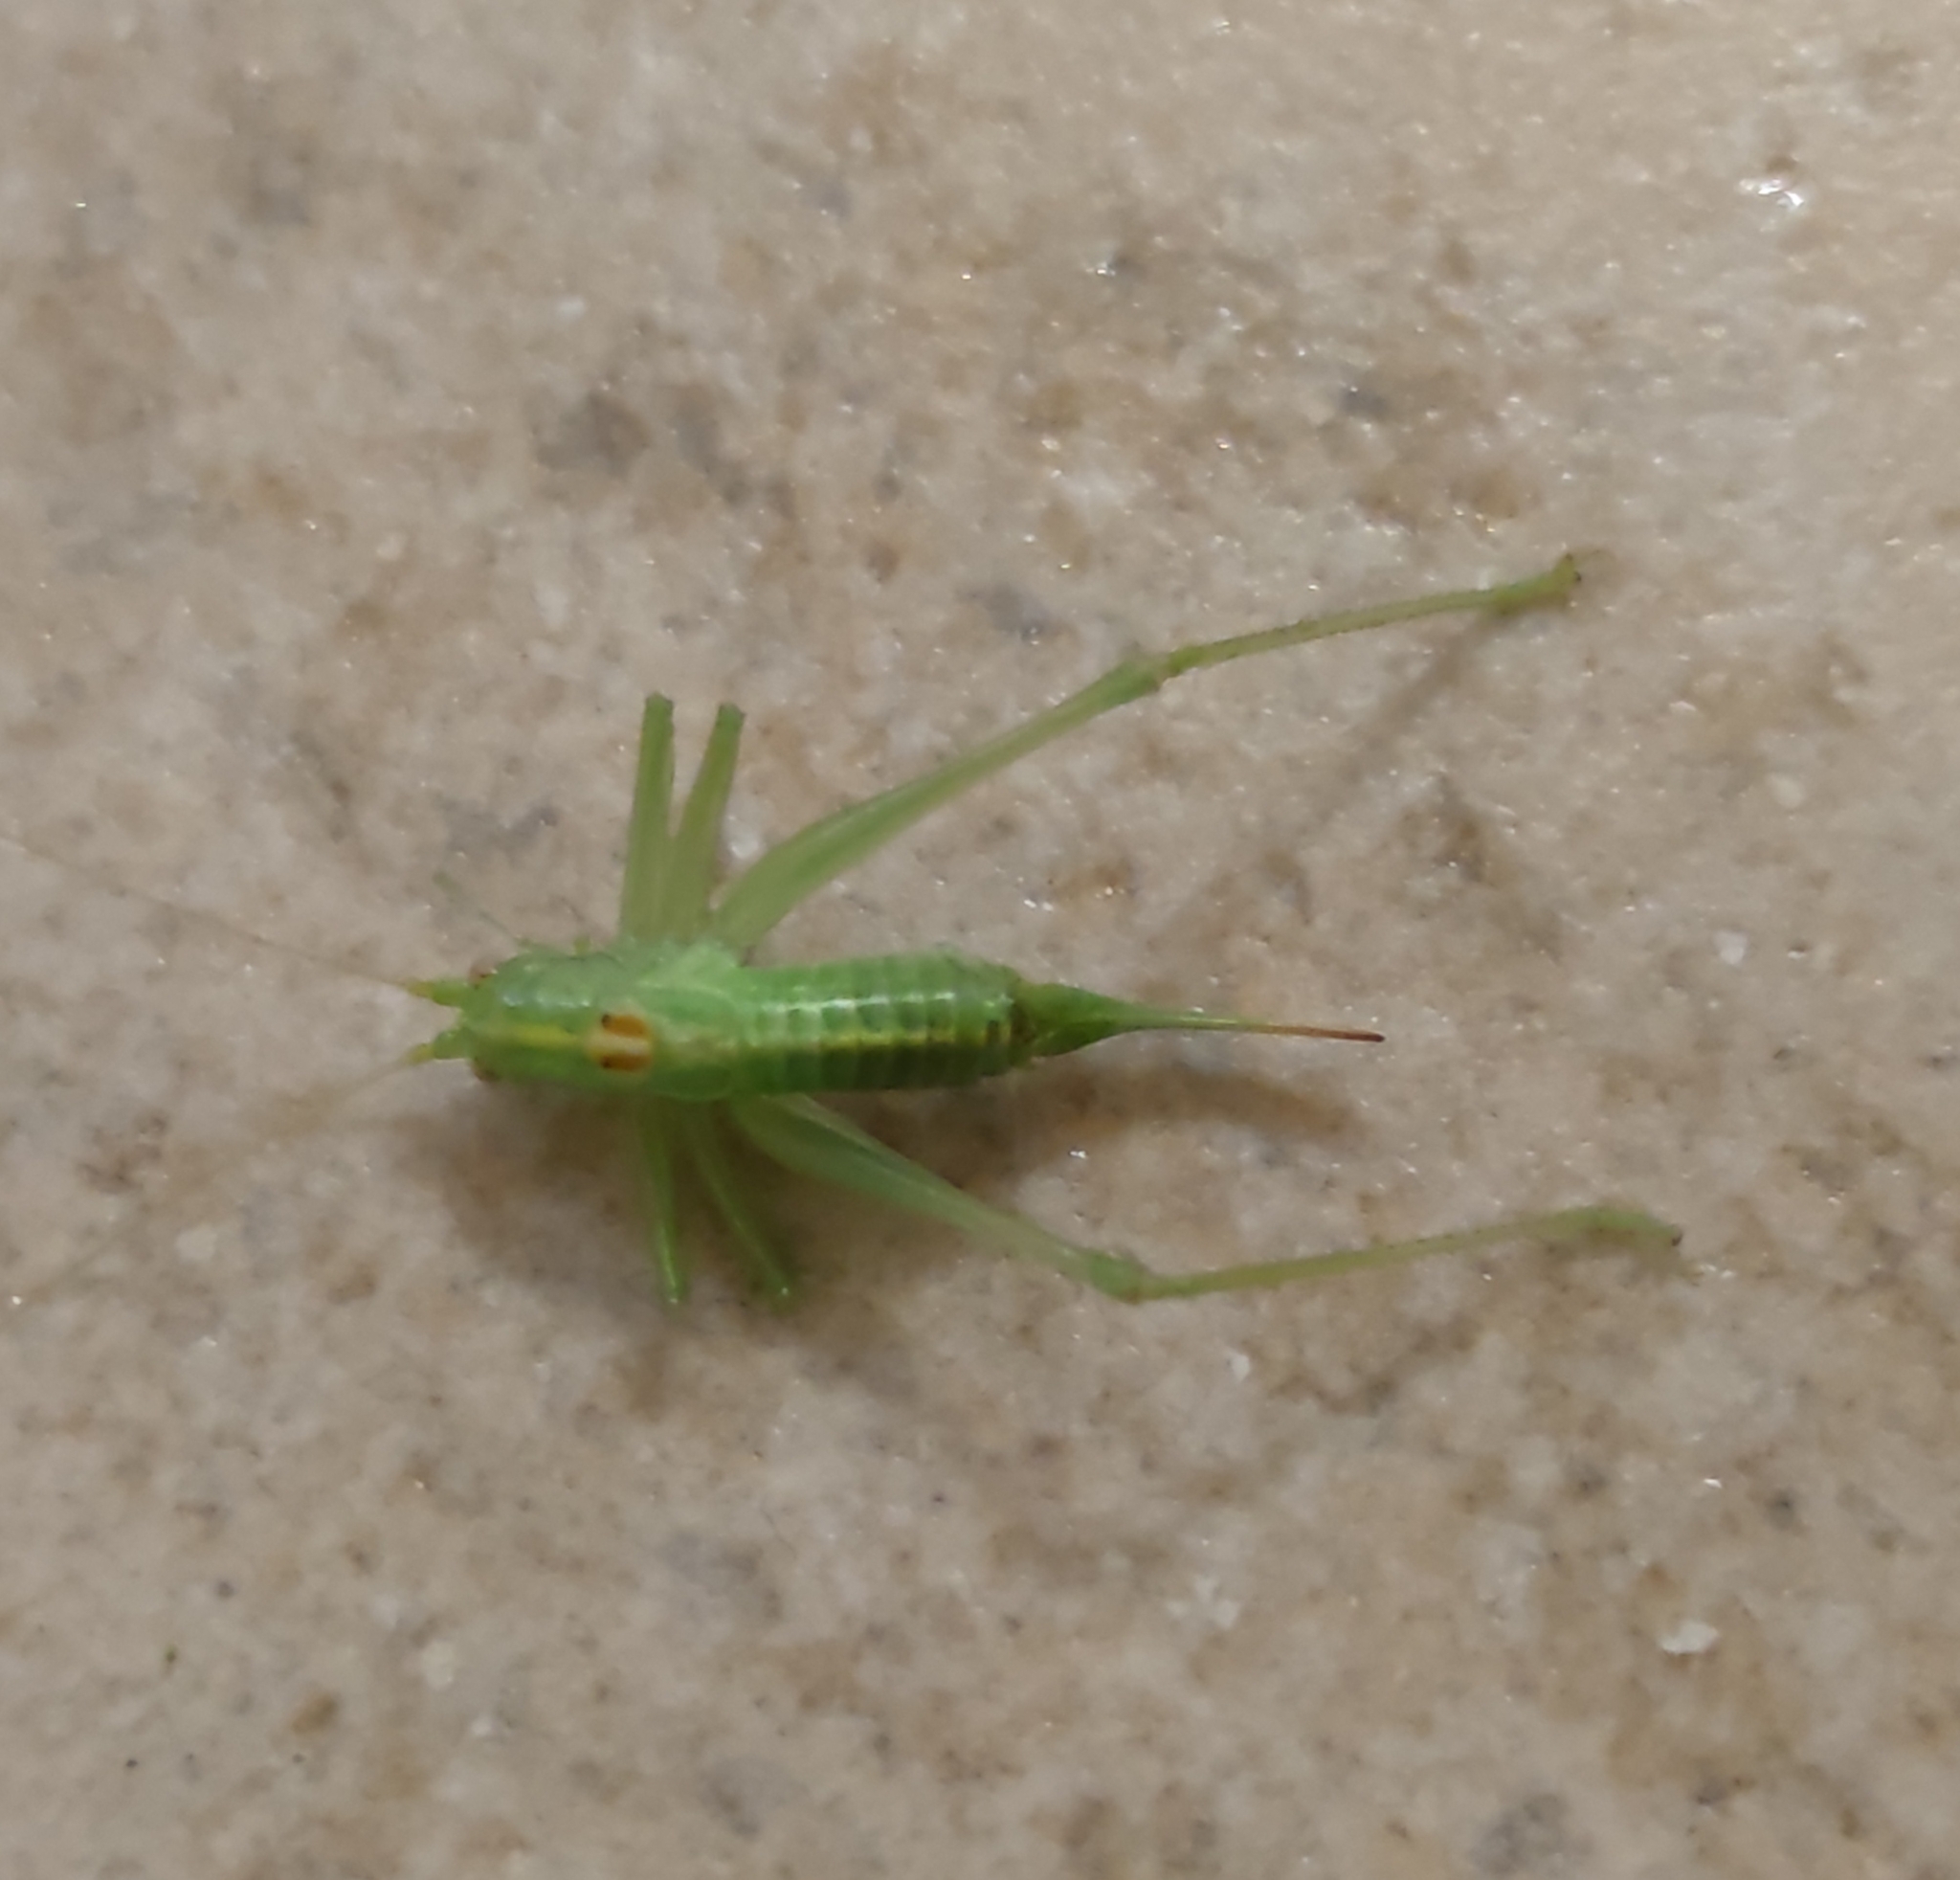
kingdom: Animalia
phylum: Arthropoda
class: Insecta
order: Orthoptera
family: Tettigoniidae
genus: Meconema
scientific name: Meconema meridionale
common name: Southern oak bush-cricket
